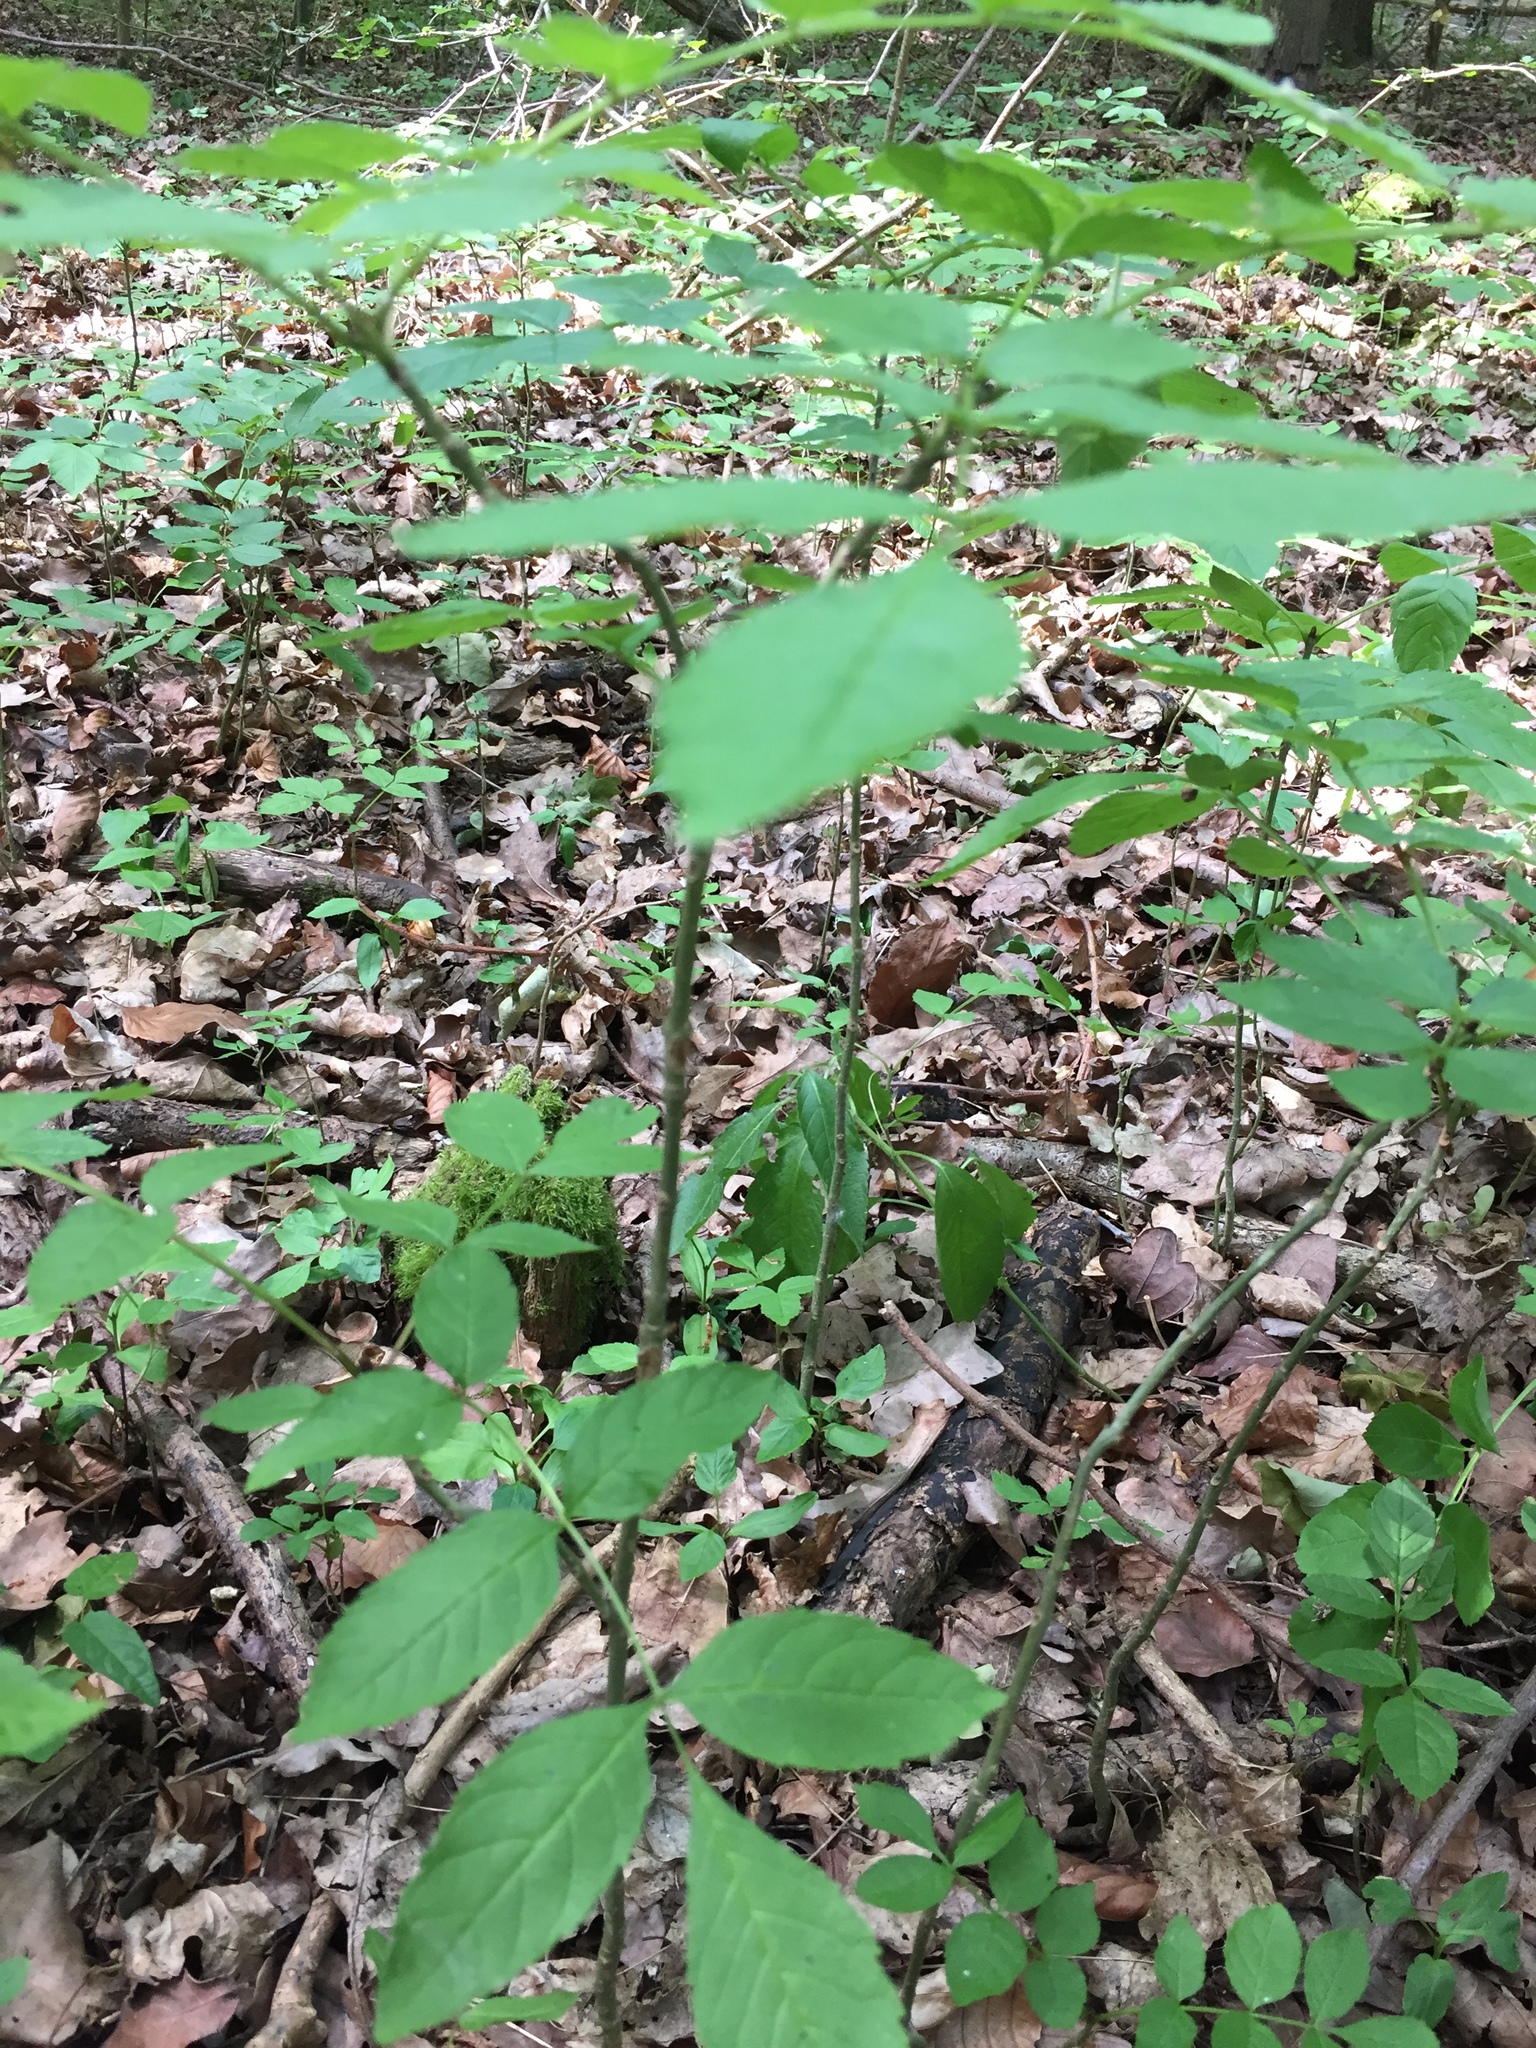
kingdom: Plantae
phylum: Tracheophyta
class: Magnoliopsida
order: Lamiales
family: Oleaceae
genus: Fraxinus
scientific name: Fraxinus excelsior
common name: European ash
